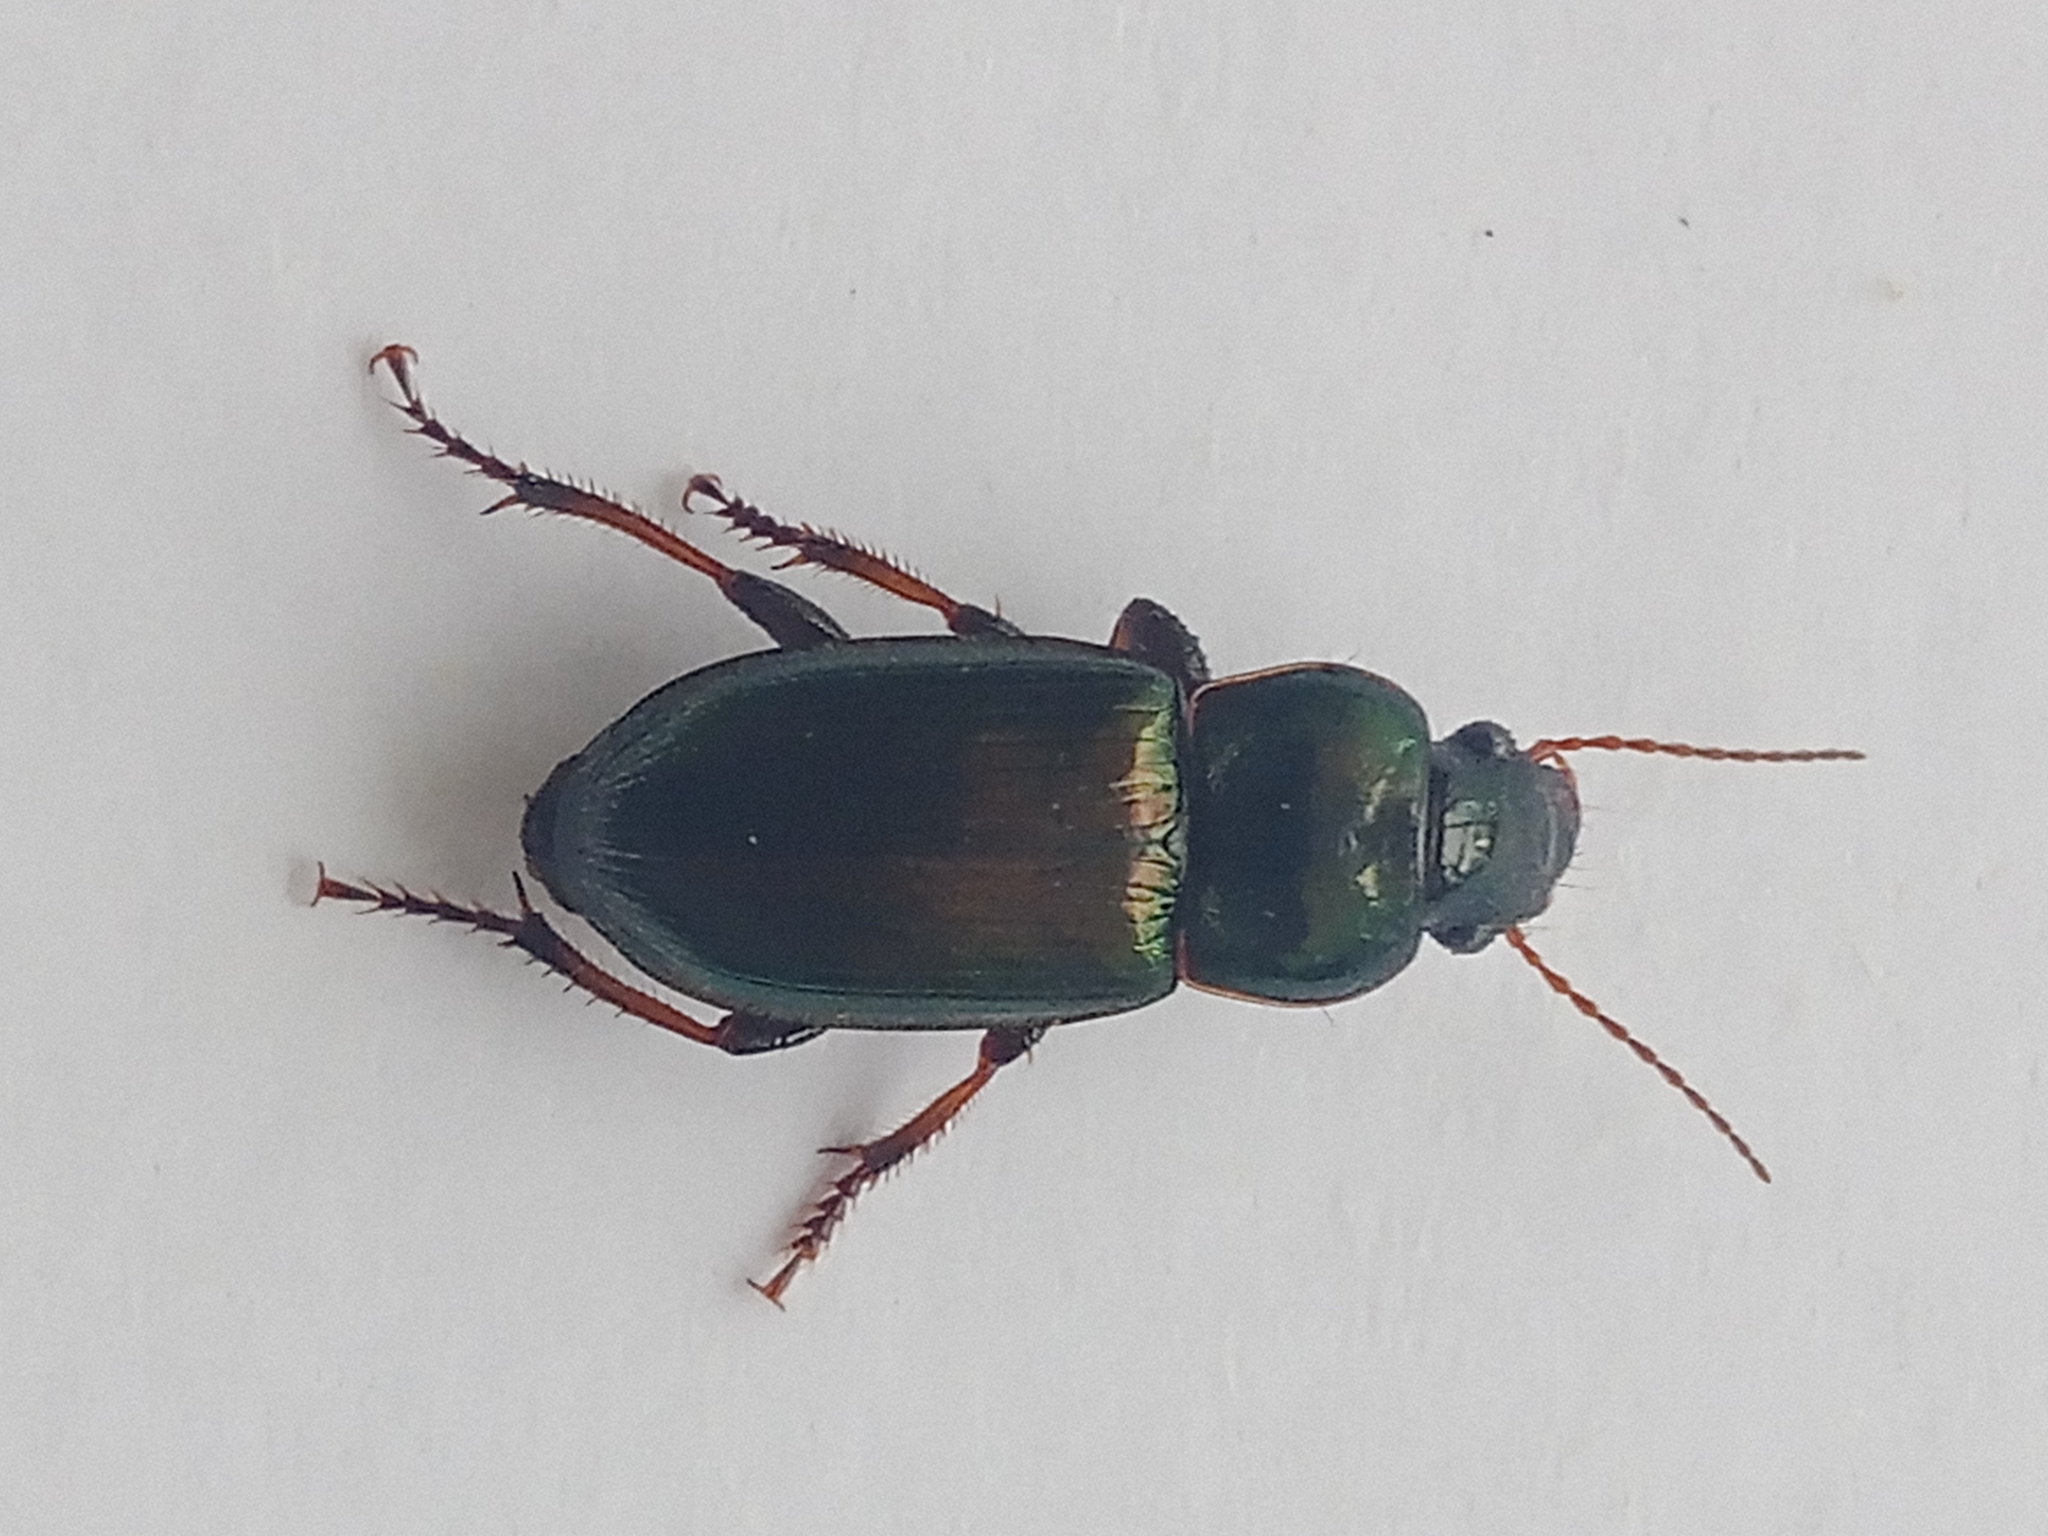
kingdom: Animalia
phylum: Arthropoda
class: Insecta
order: Coleoptera
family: Carabidae
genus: Harpalus
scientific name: Harpalus affinis
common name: Polychrome harp ground beetle
